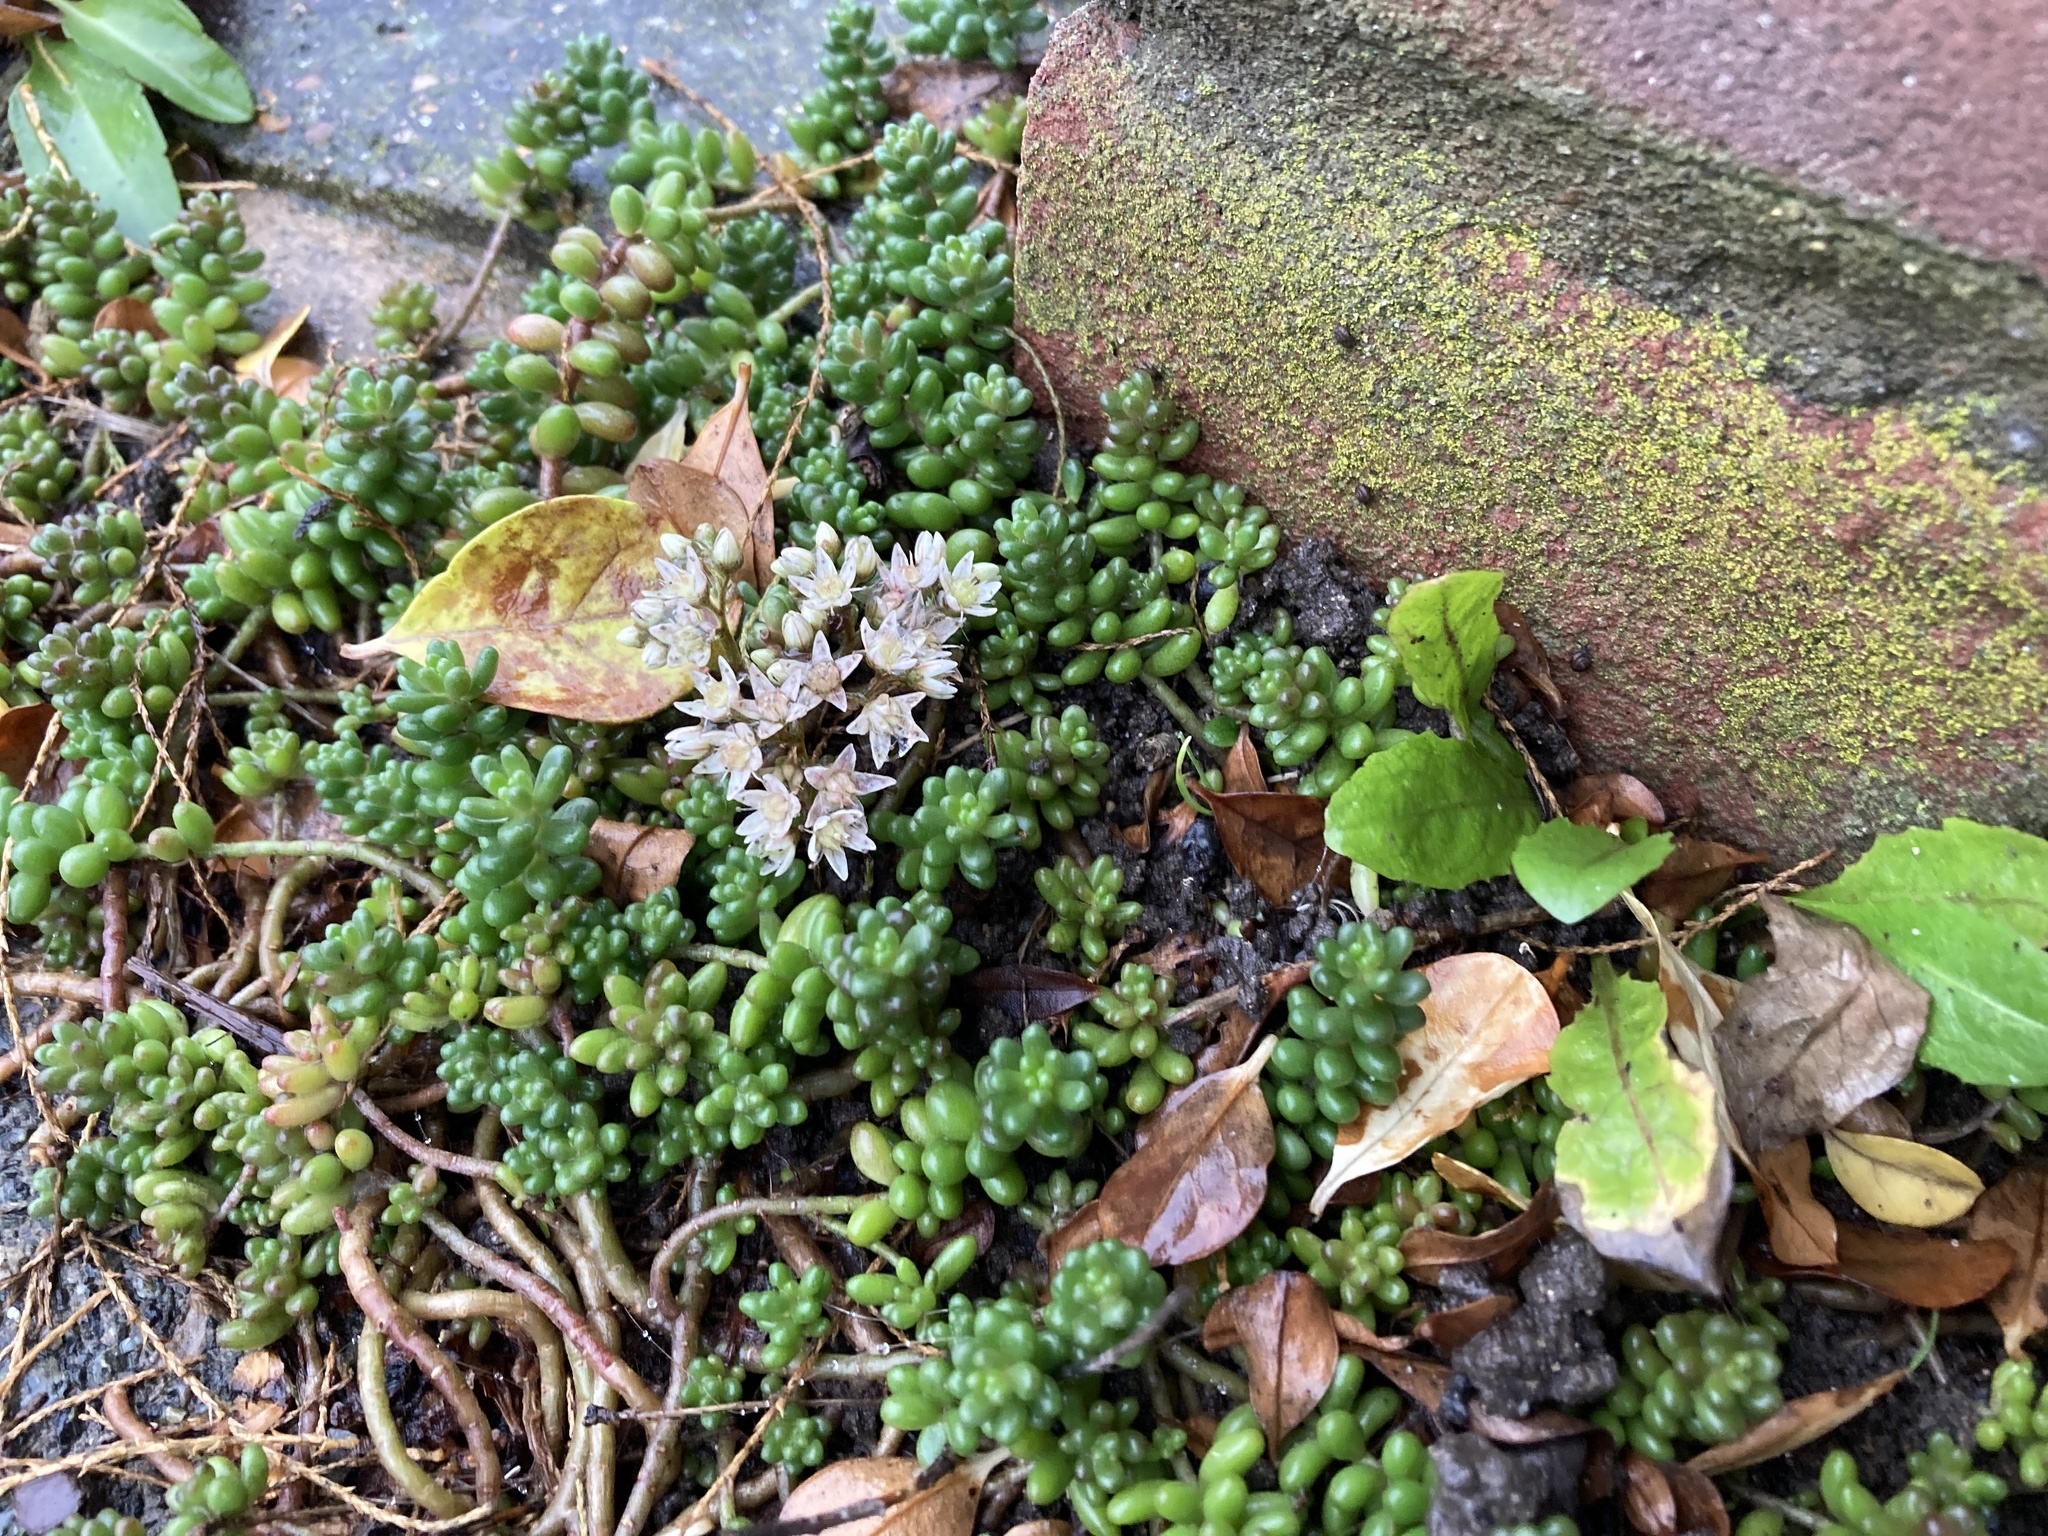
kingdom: Plantae
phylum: Tracheophyta
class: Magnoliopsida
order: Saxifragales
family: Crassulaceae
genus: Sedum
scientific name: Sedum album
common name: White stonecrop
